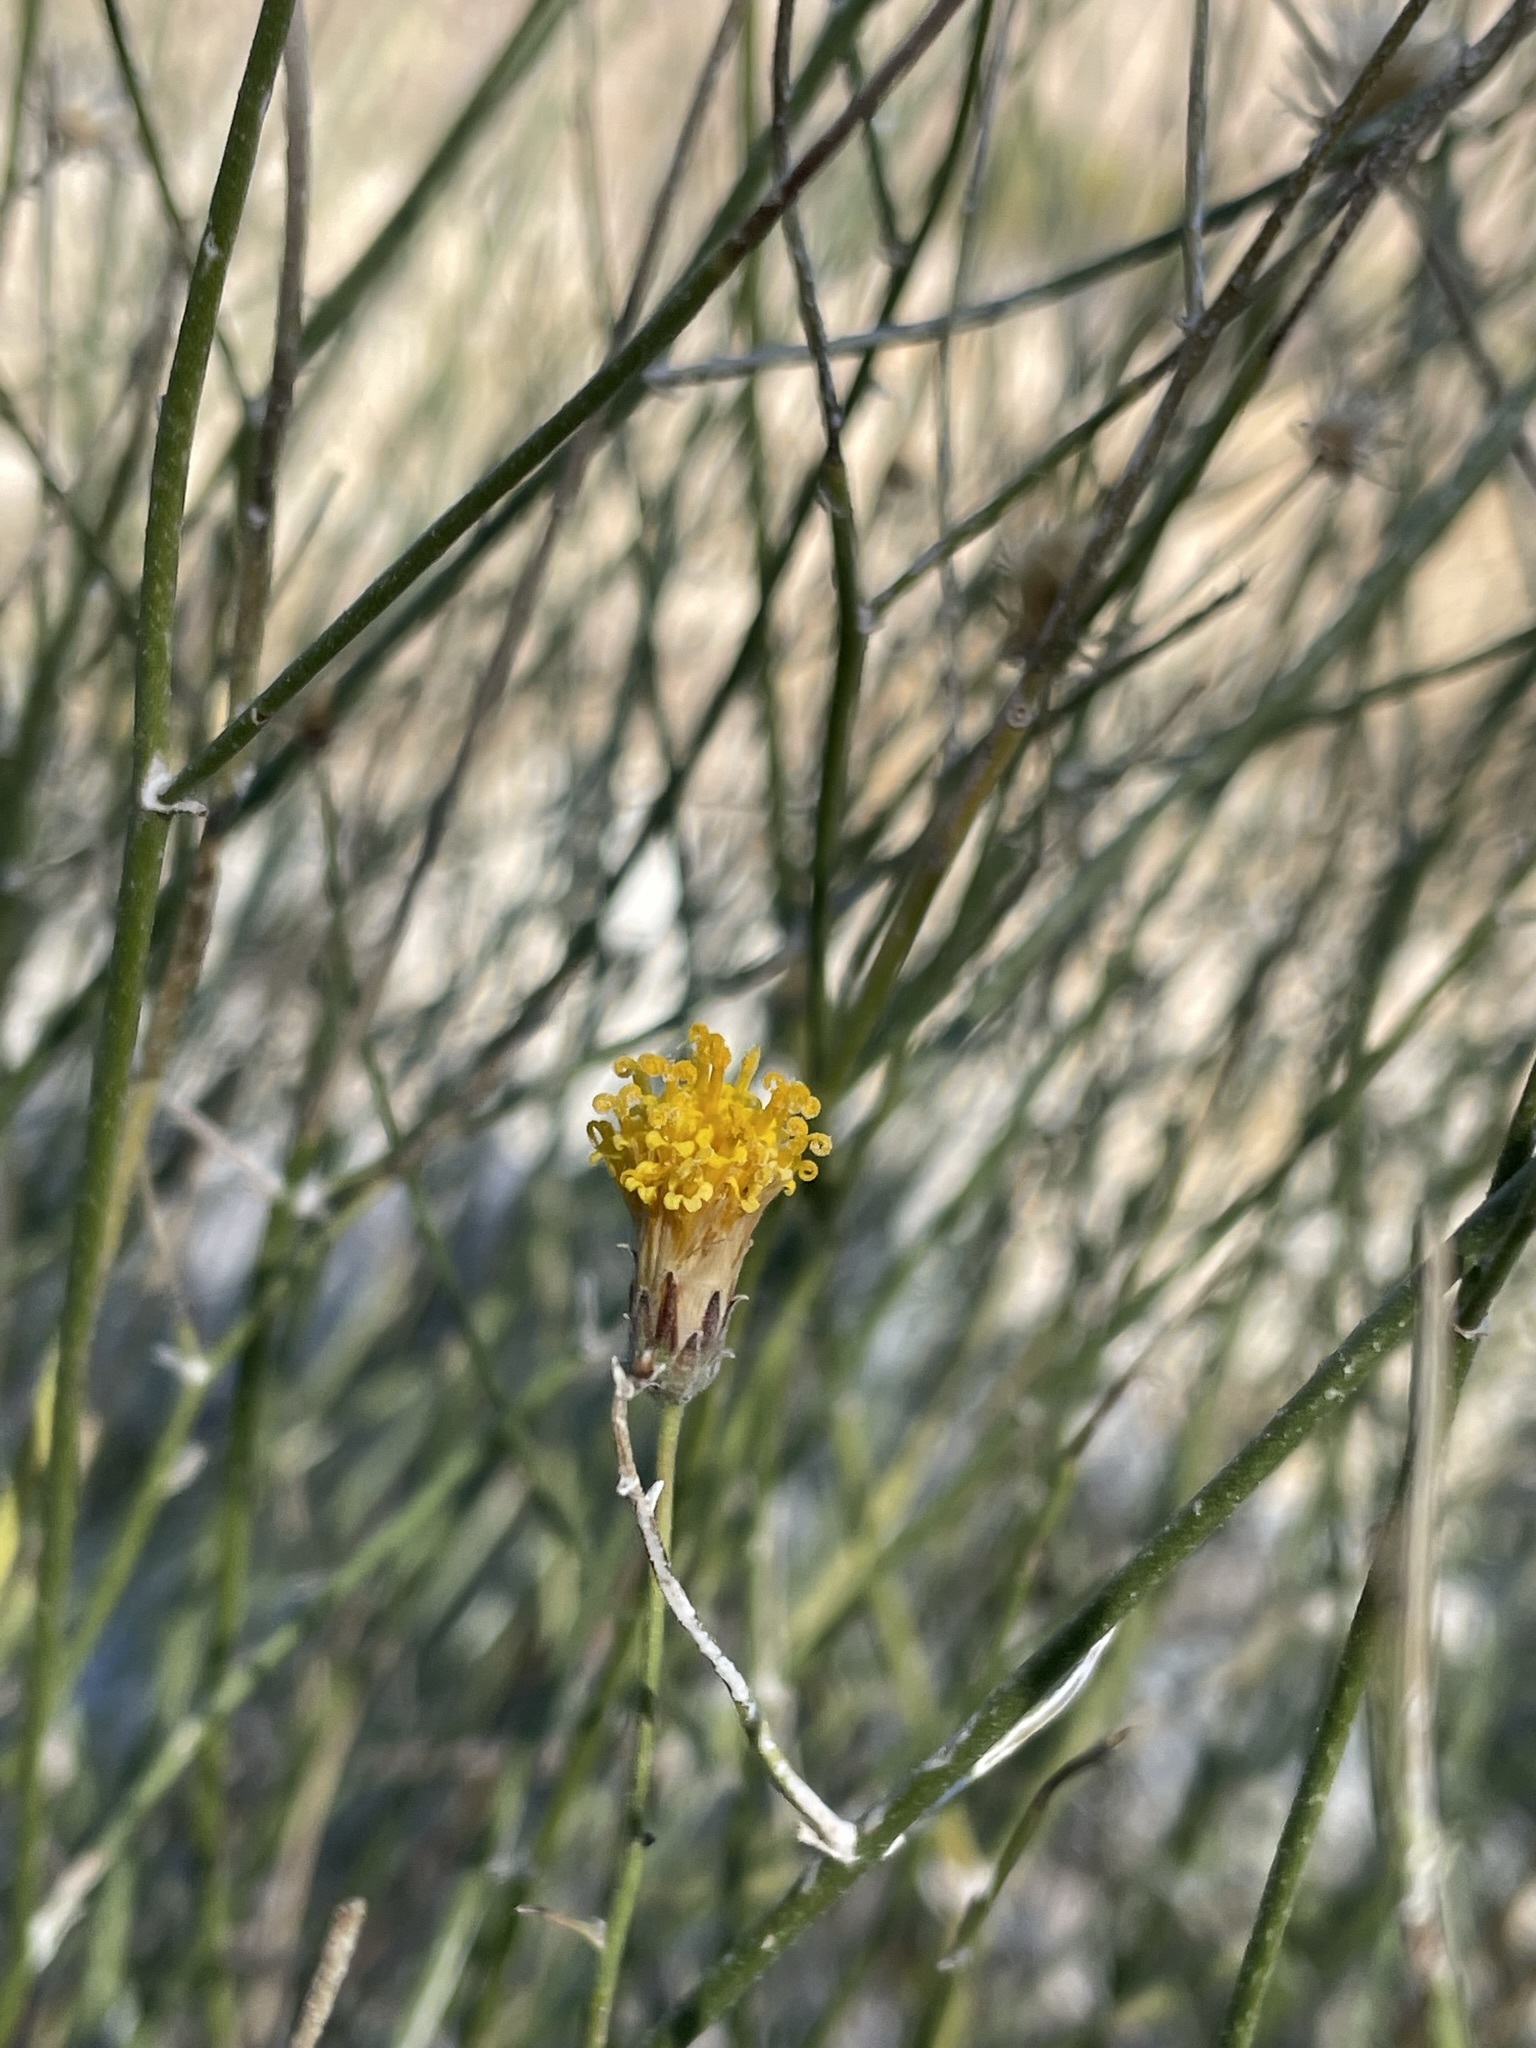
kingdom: Plantae
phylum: Tracheophyta
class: Magnoliopsida
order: Asterales
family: Asteraceae
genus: Bebbia
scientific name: Bebbia juncea
